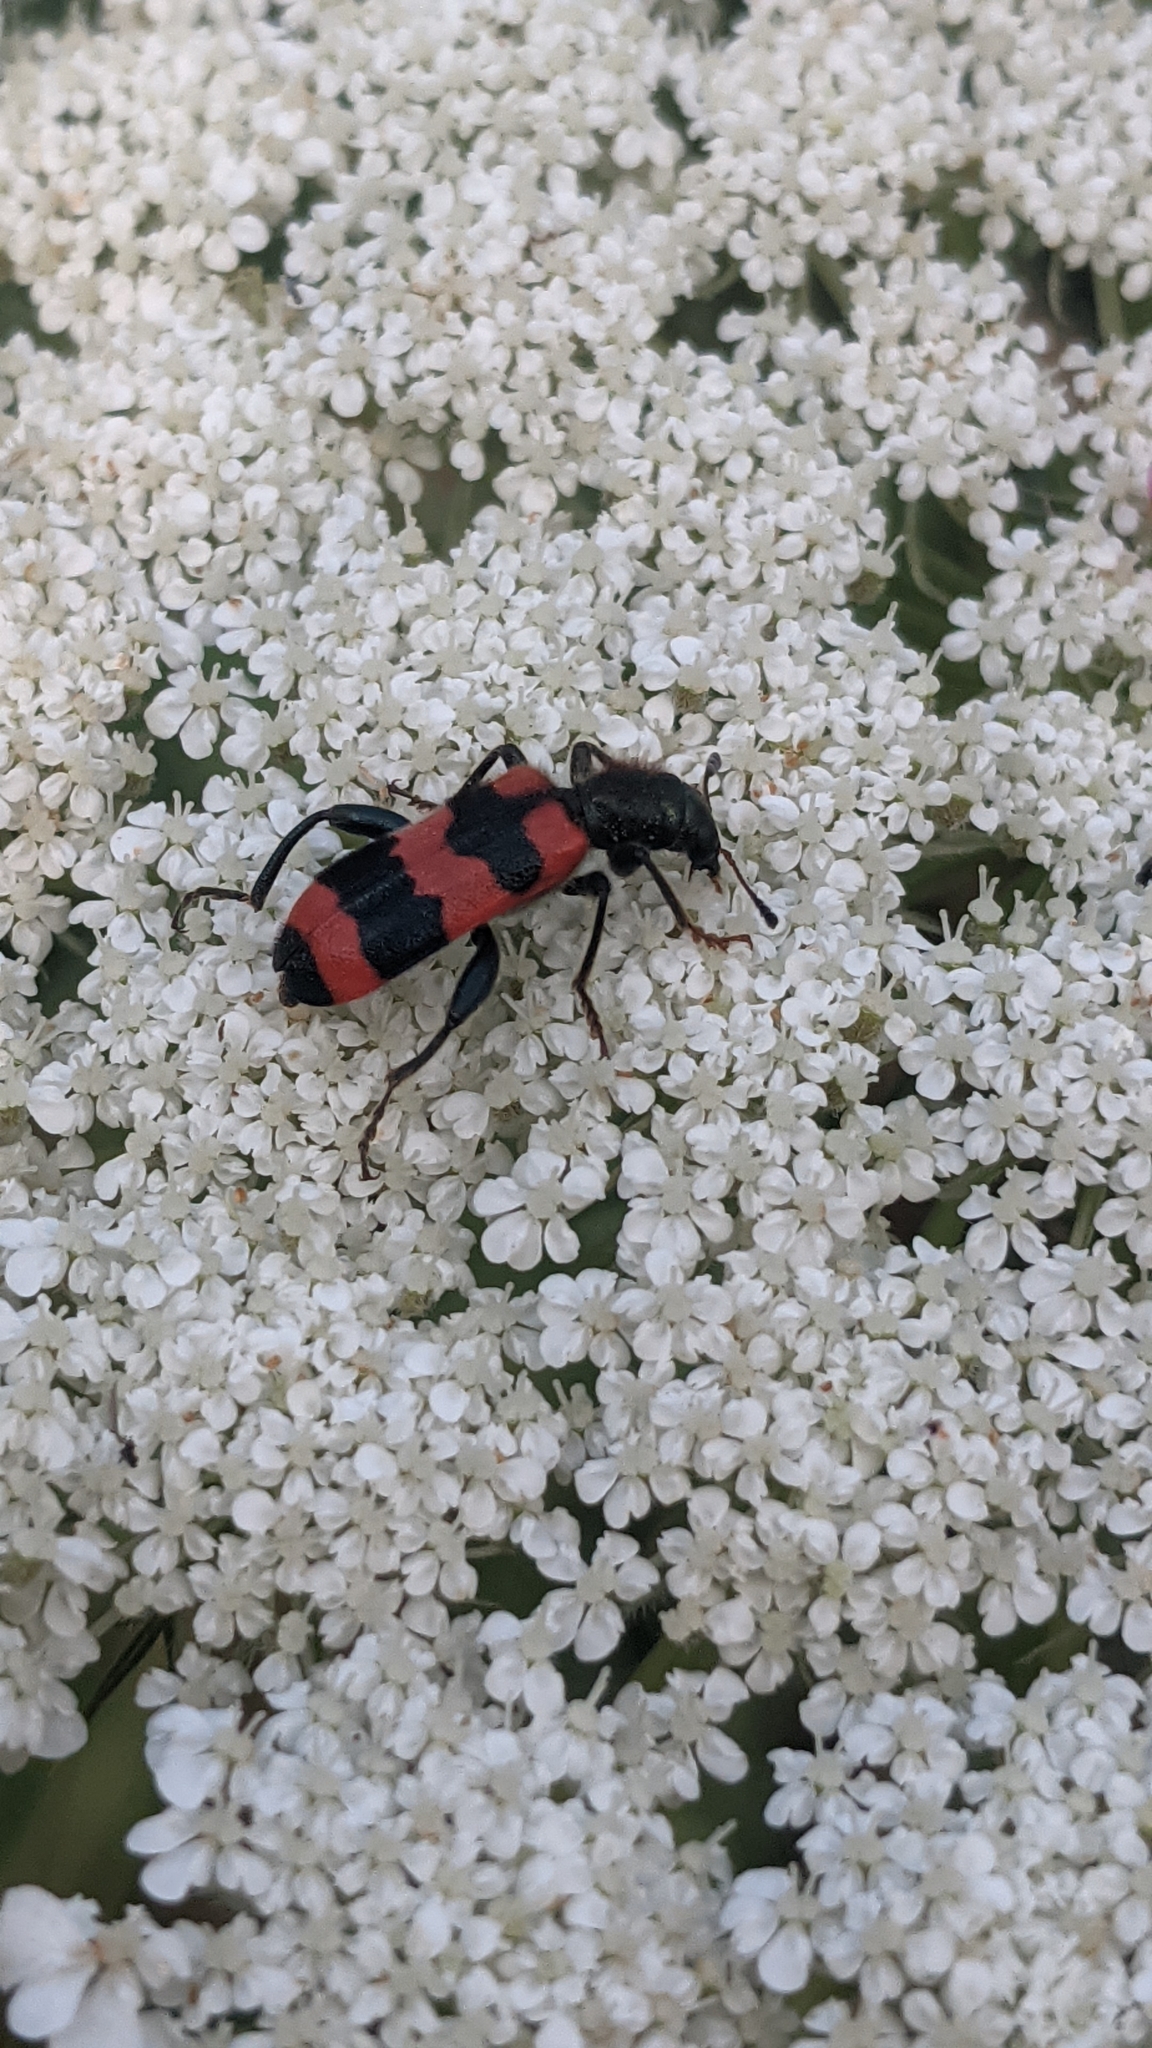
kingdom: Animalia
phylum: Arthropoda
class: Insecta
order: Coleoptera
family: Cleridae
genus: Trichodes
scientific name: Trichodes apiarius
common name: Bee-eating beetle
